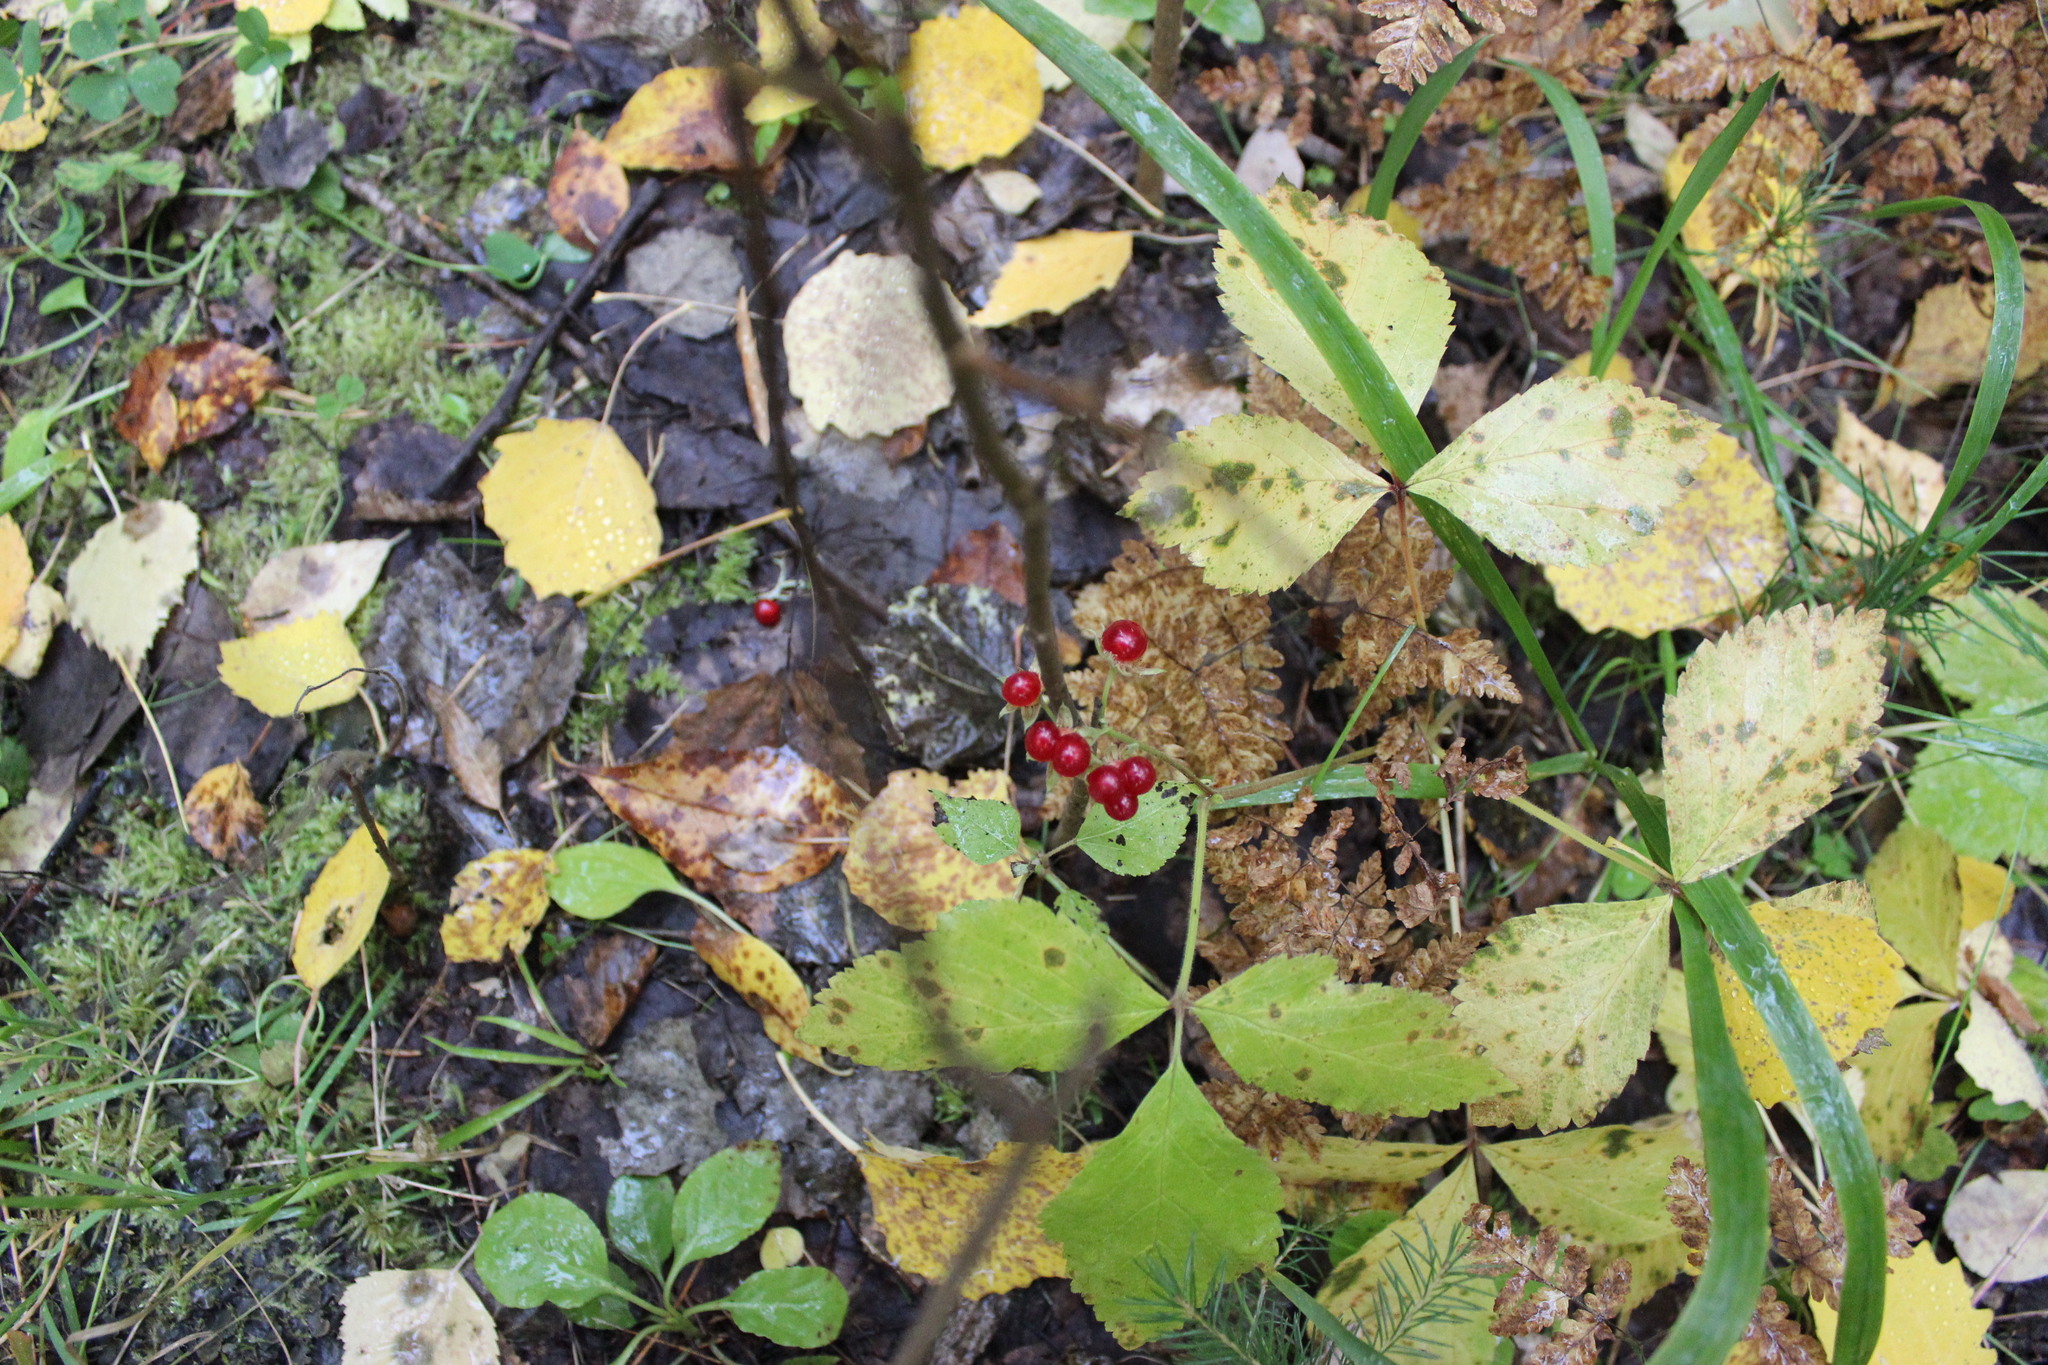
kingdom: Plantae
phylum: Tracheophyta
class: Magnoliopsida
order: Rosales
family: Rosaceae
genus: Rubus
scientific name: Rubus saxatilis
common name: Stone bramble
